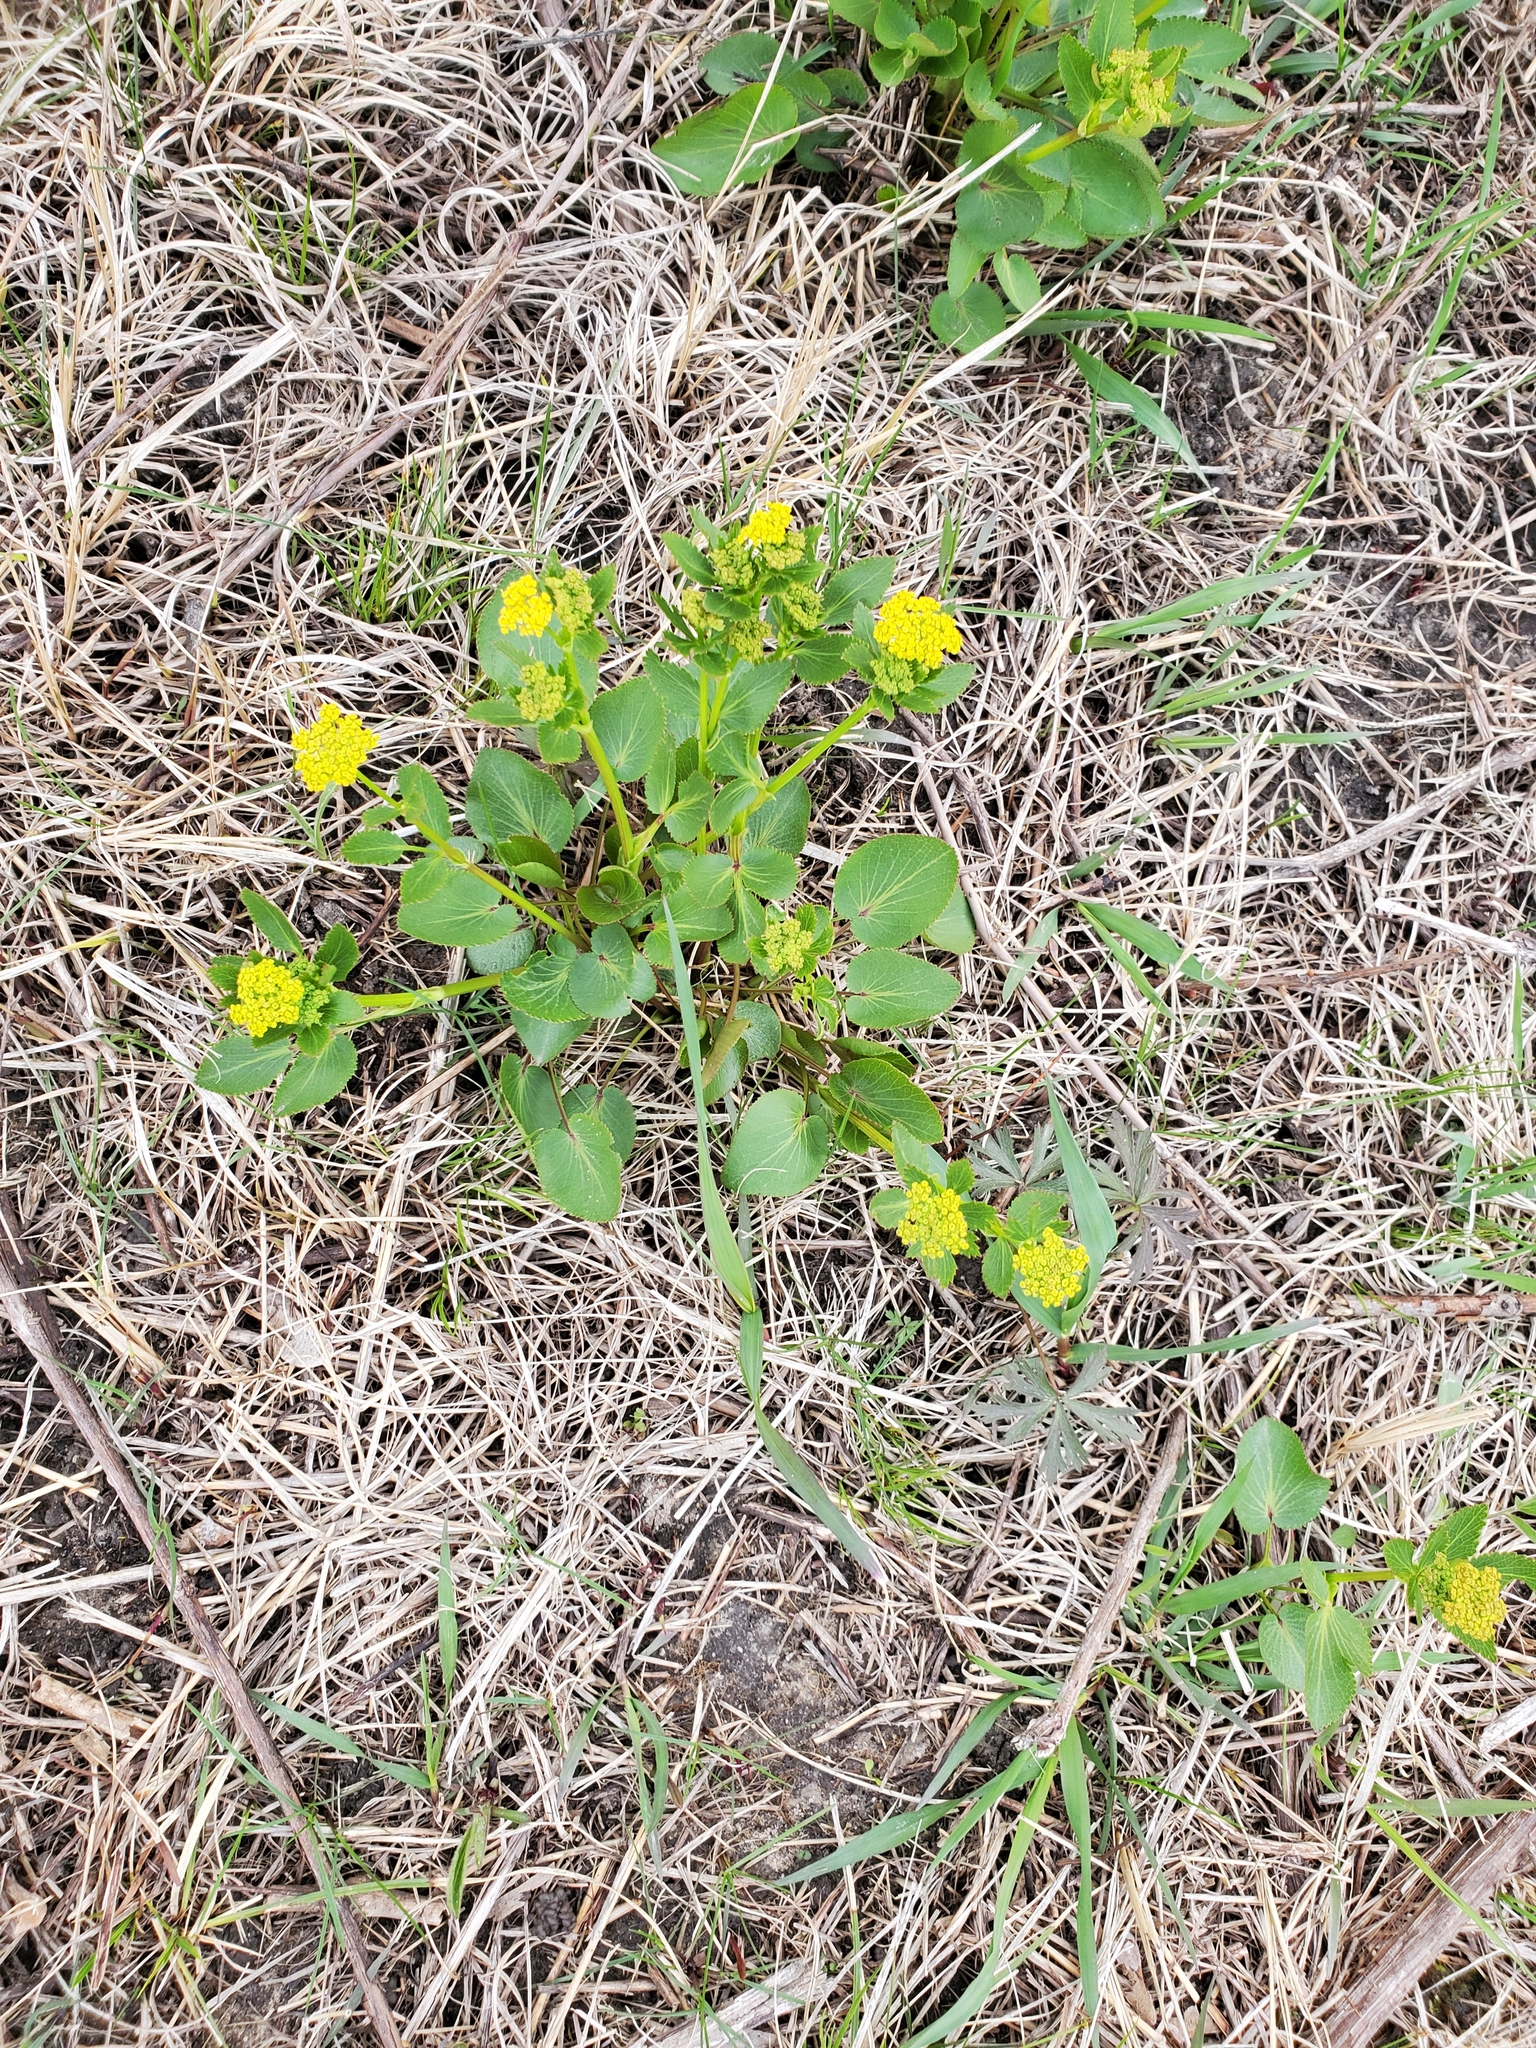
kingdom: Plantae
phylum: Tracheophyta
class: Magnoliopsida
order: Brassicales
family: Brassicaceae
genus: Barbarea
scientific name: Barbarea vulgaris
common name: Cressy-greens
